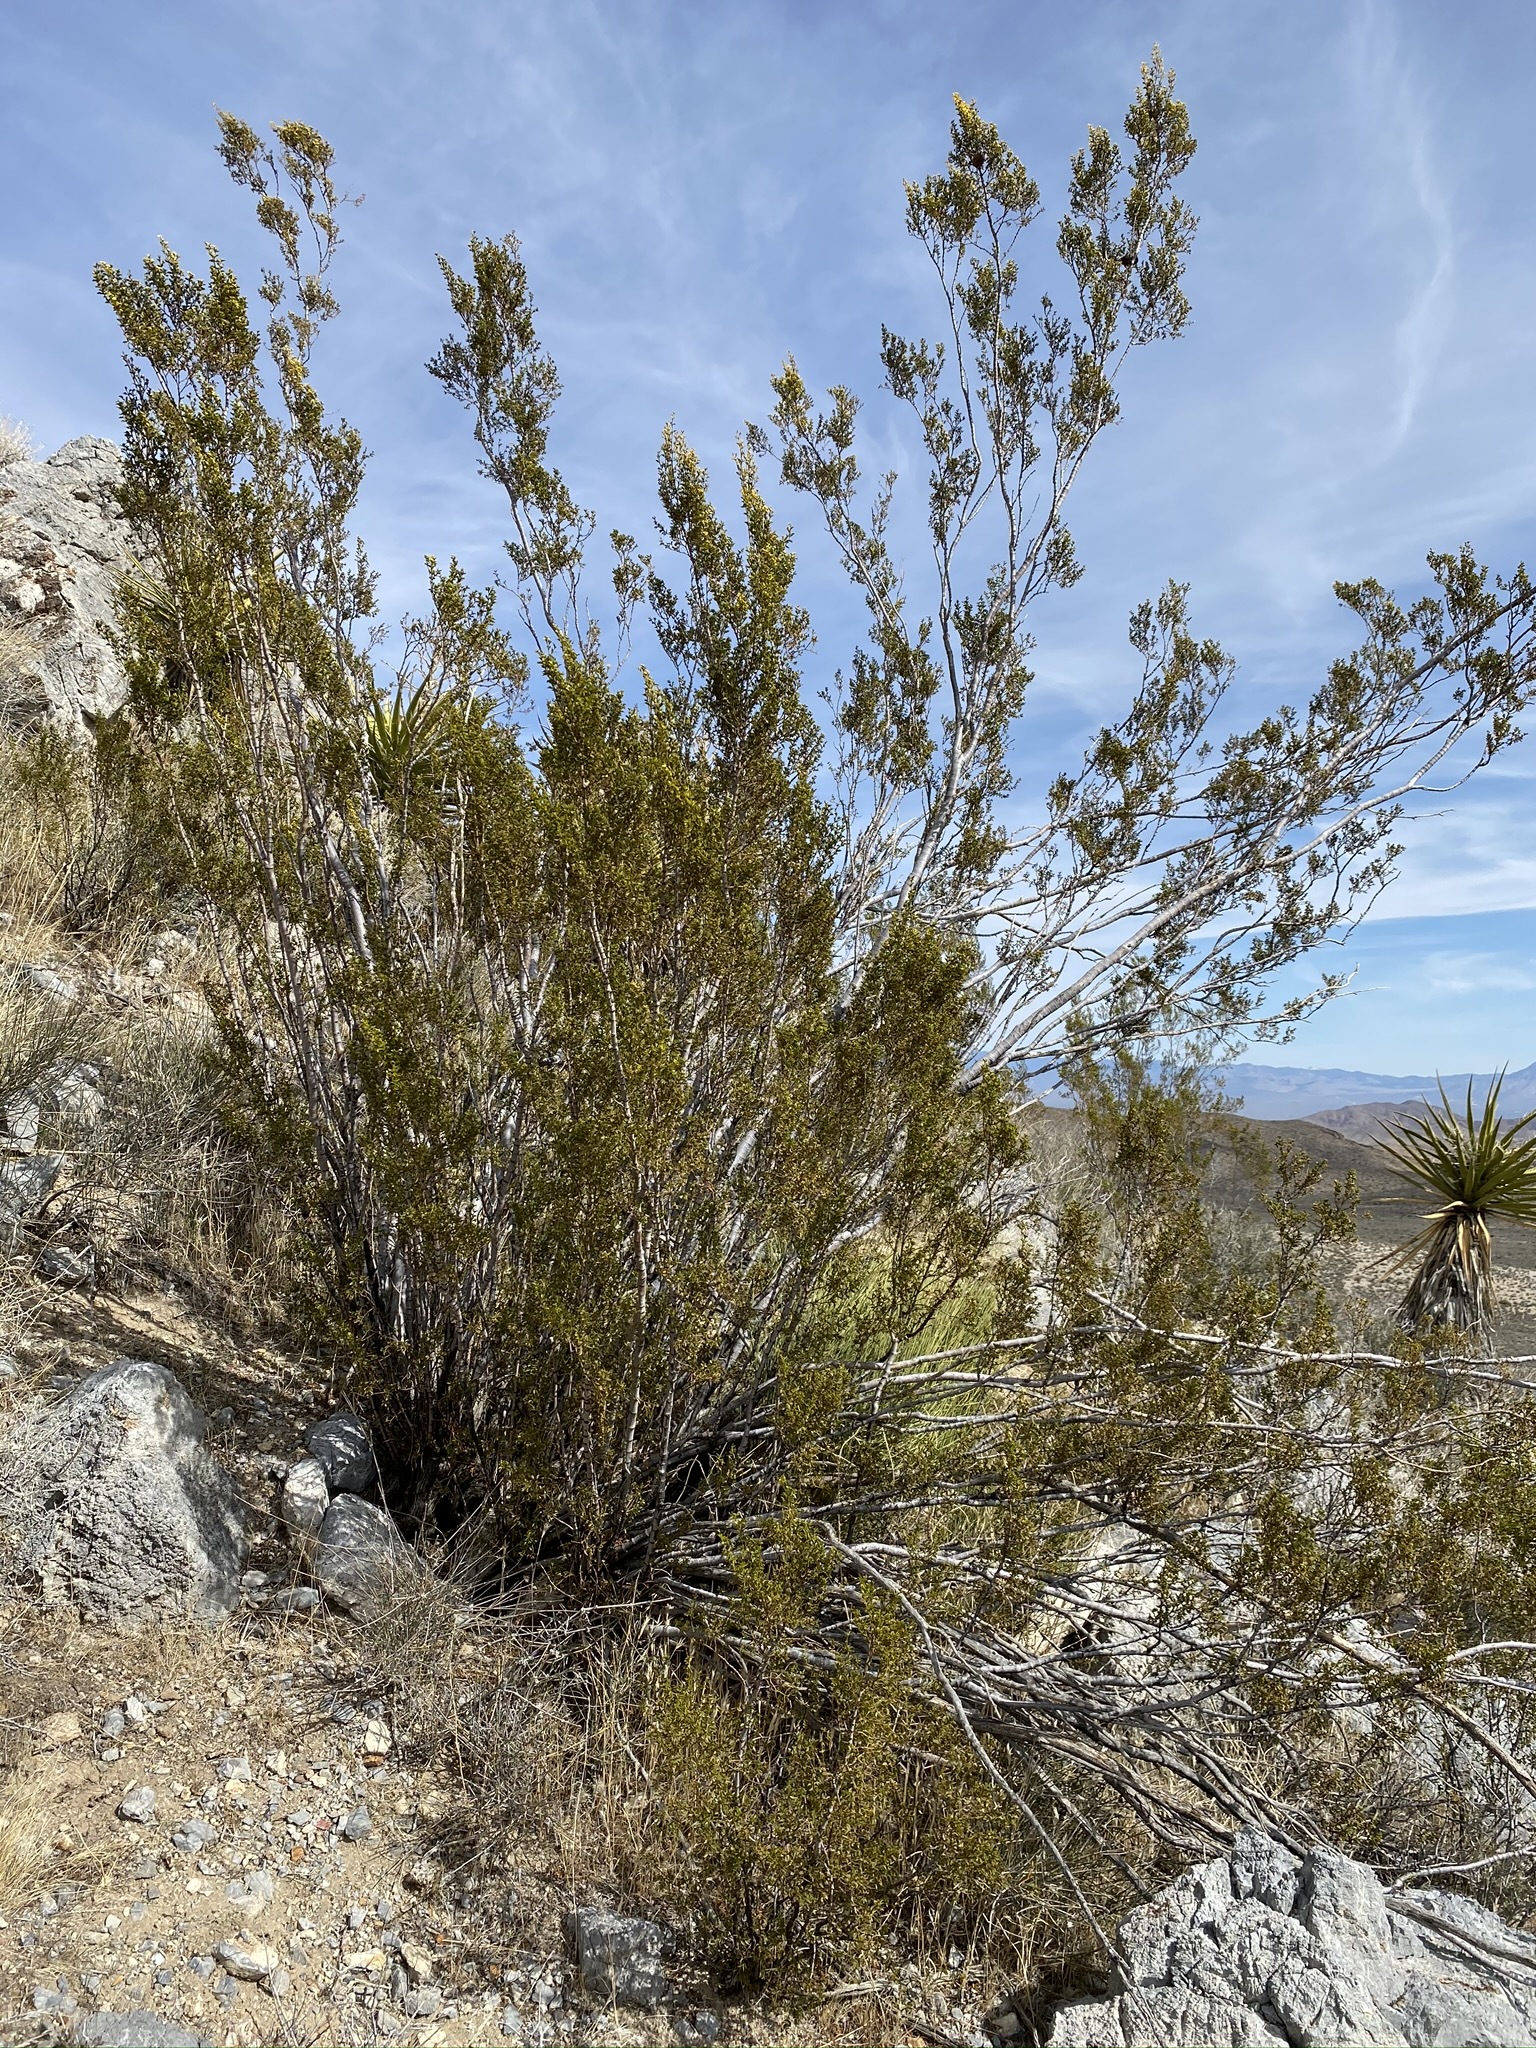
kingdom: Plantae
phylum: Tracheophyta
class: Magnoliopsida
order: Zygophyllales
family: Zygophyllaceae
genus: Larrea
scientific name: Larrea tridentata
